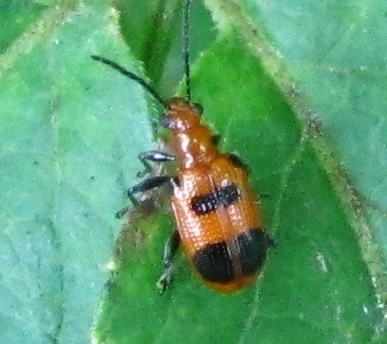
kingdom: Animalia
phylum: Arthropoda
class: Insecta
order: Coleoptera
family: Chrysomelidae
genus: Neolema
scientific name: Neolema sexpunctata
